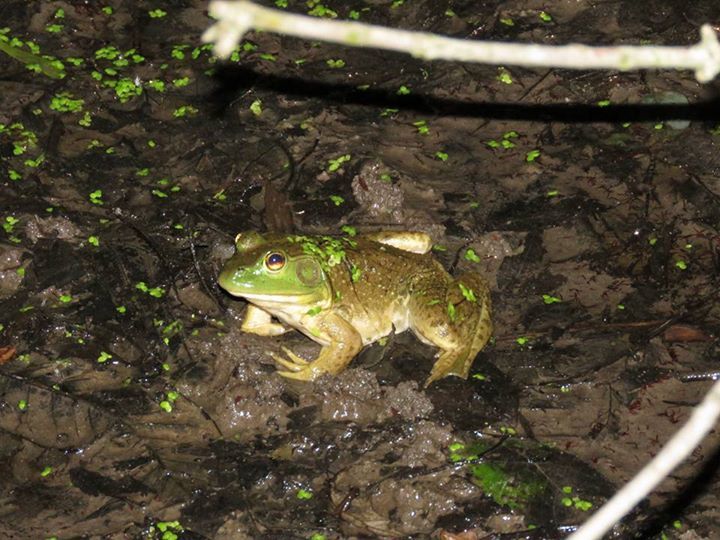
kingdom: Animalia
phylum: Chordata
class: Amphibia
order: Anura
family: Ranidae
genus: Lithobates
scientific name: Lithobates catesbeianus
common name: American bullfrog
